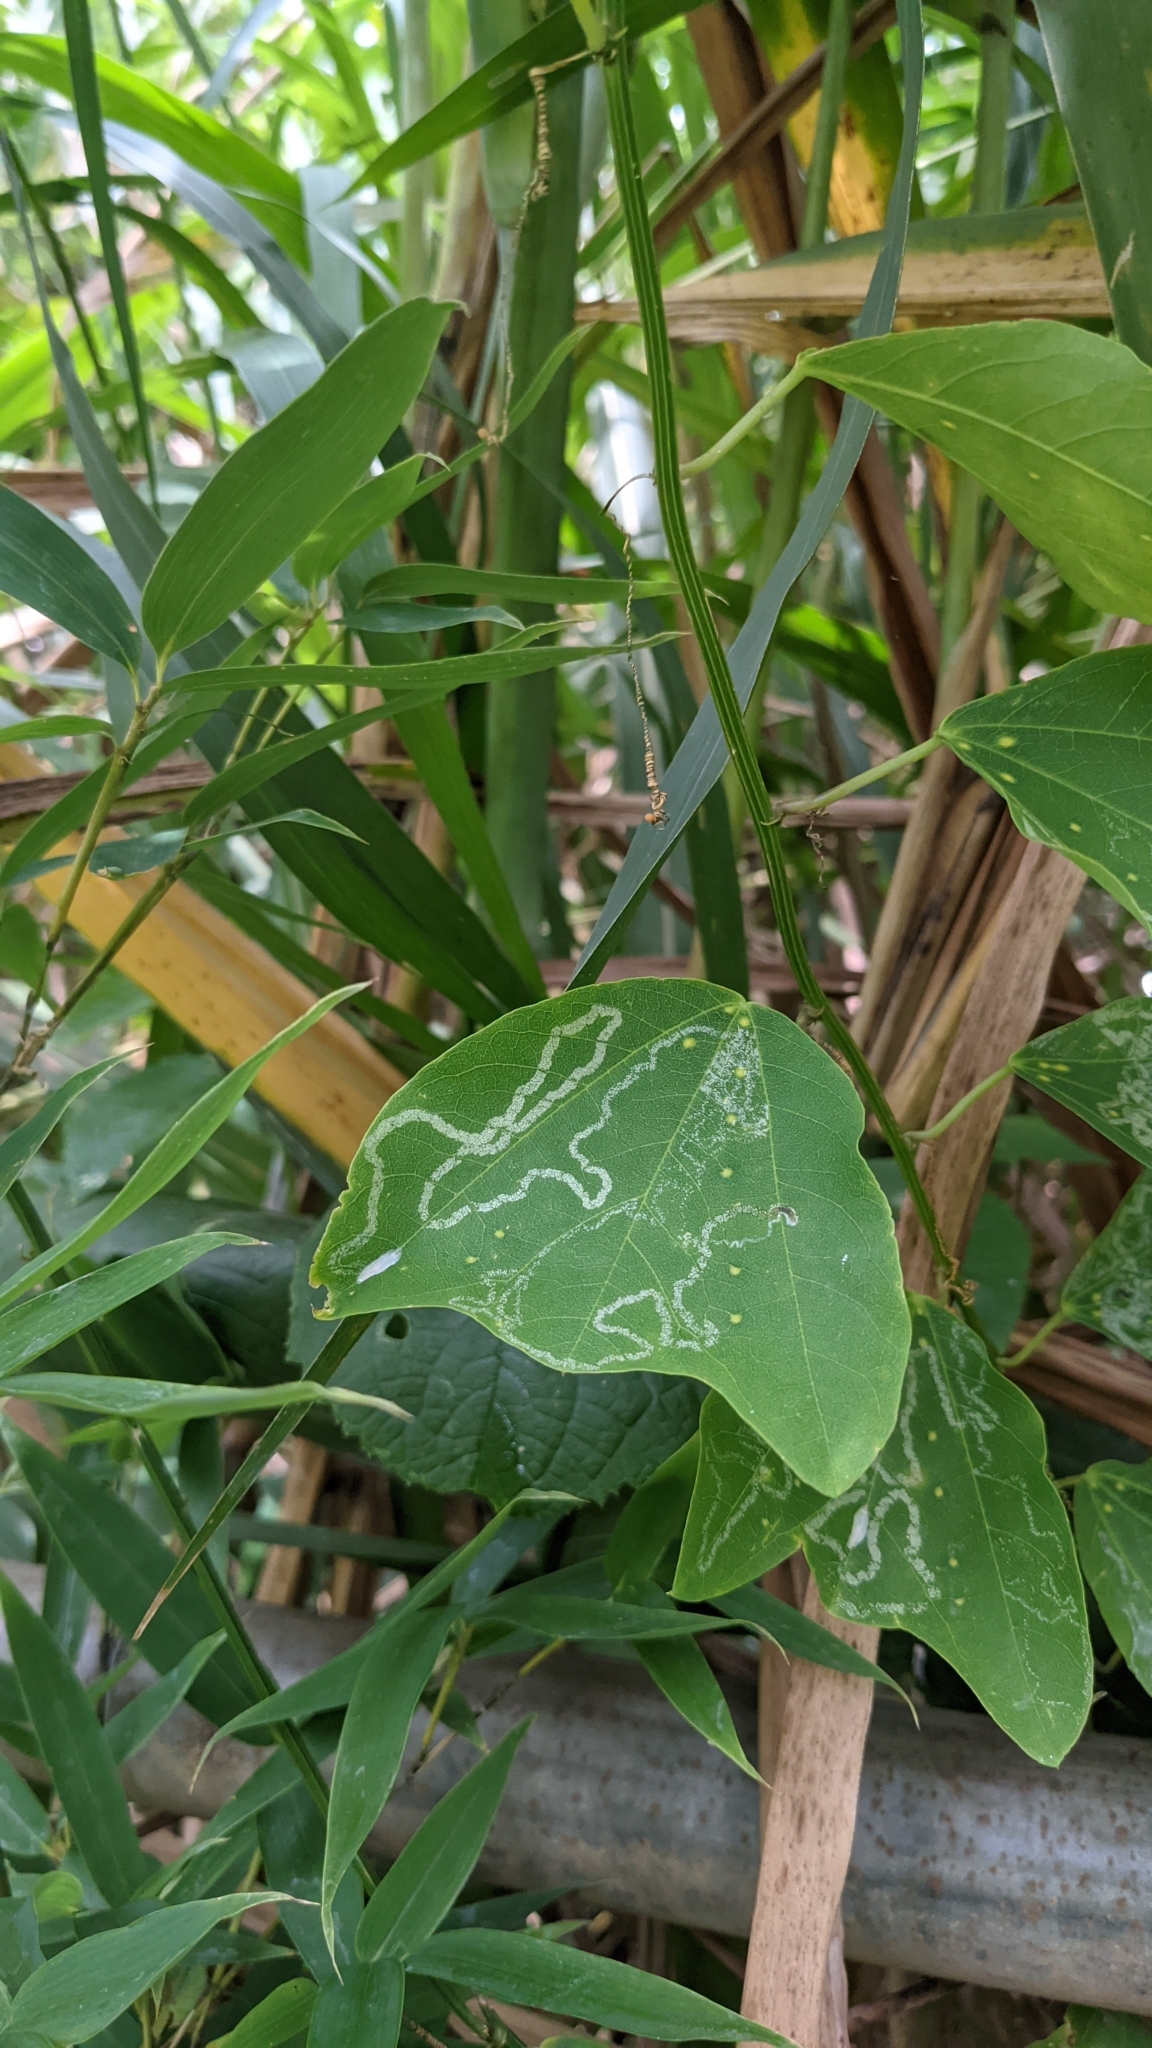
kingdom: Plantae
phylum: Tracheophyta
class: Magnoliopsida
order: Malpighiales
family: Passifloraceae
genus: Passiflora
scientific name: Passiflora biflora
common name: Twoflower passionflower
